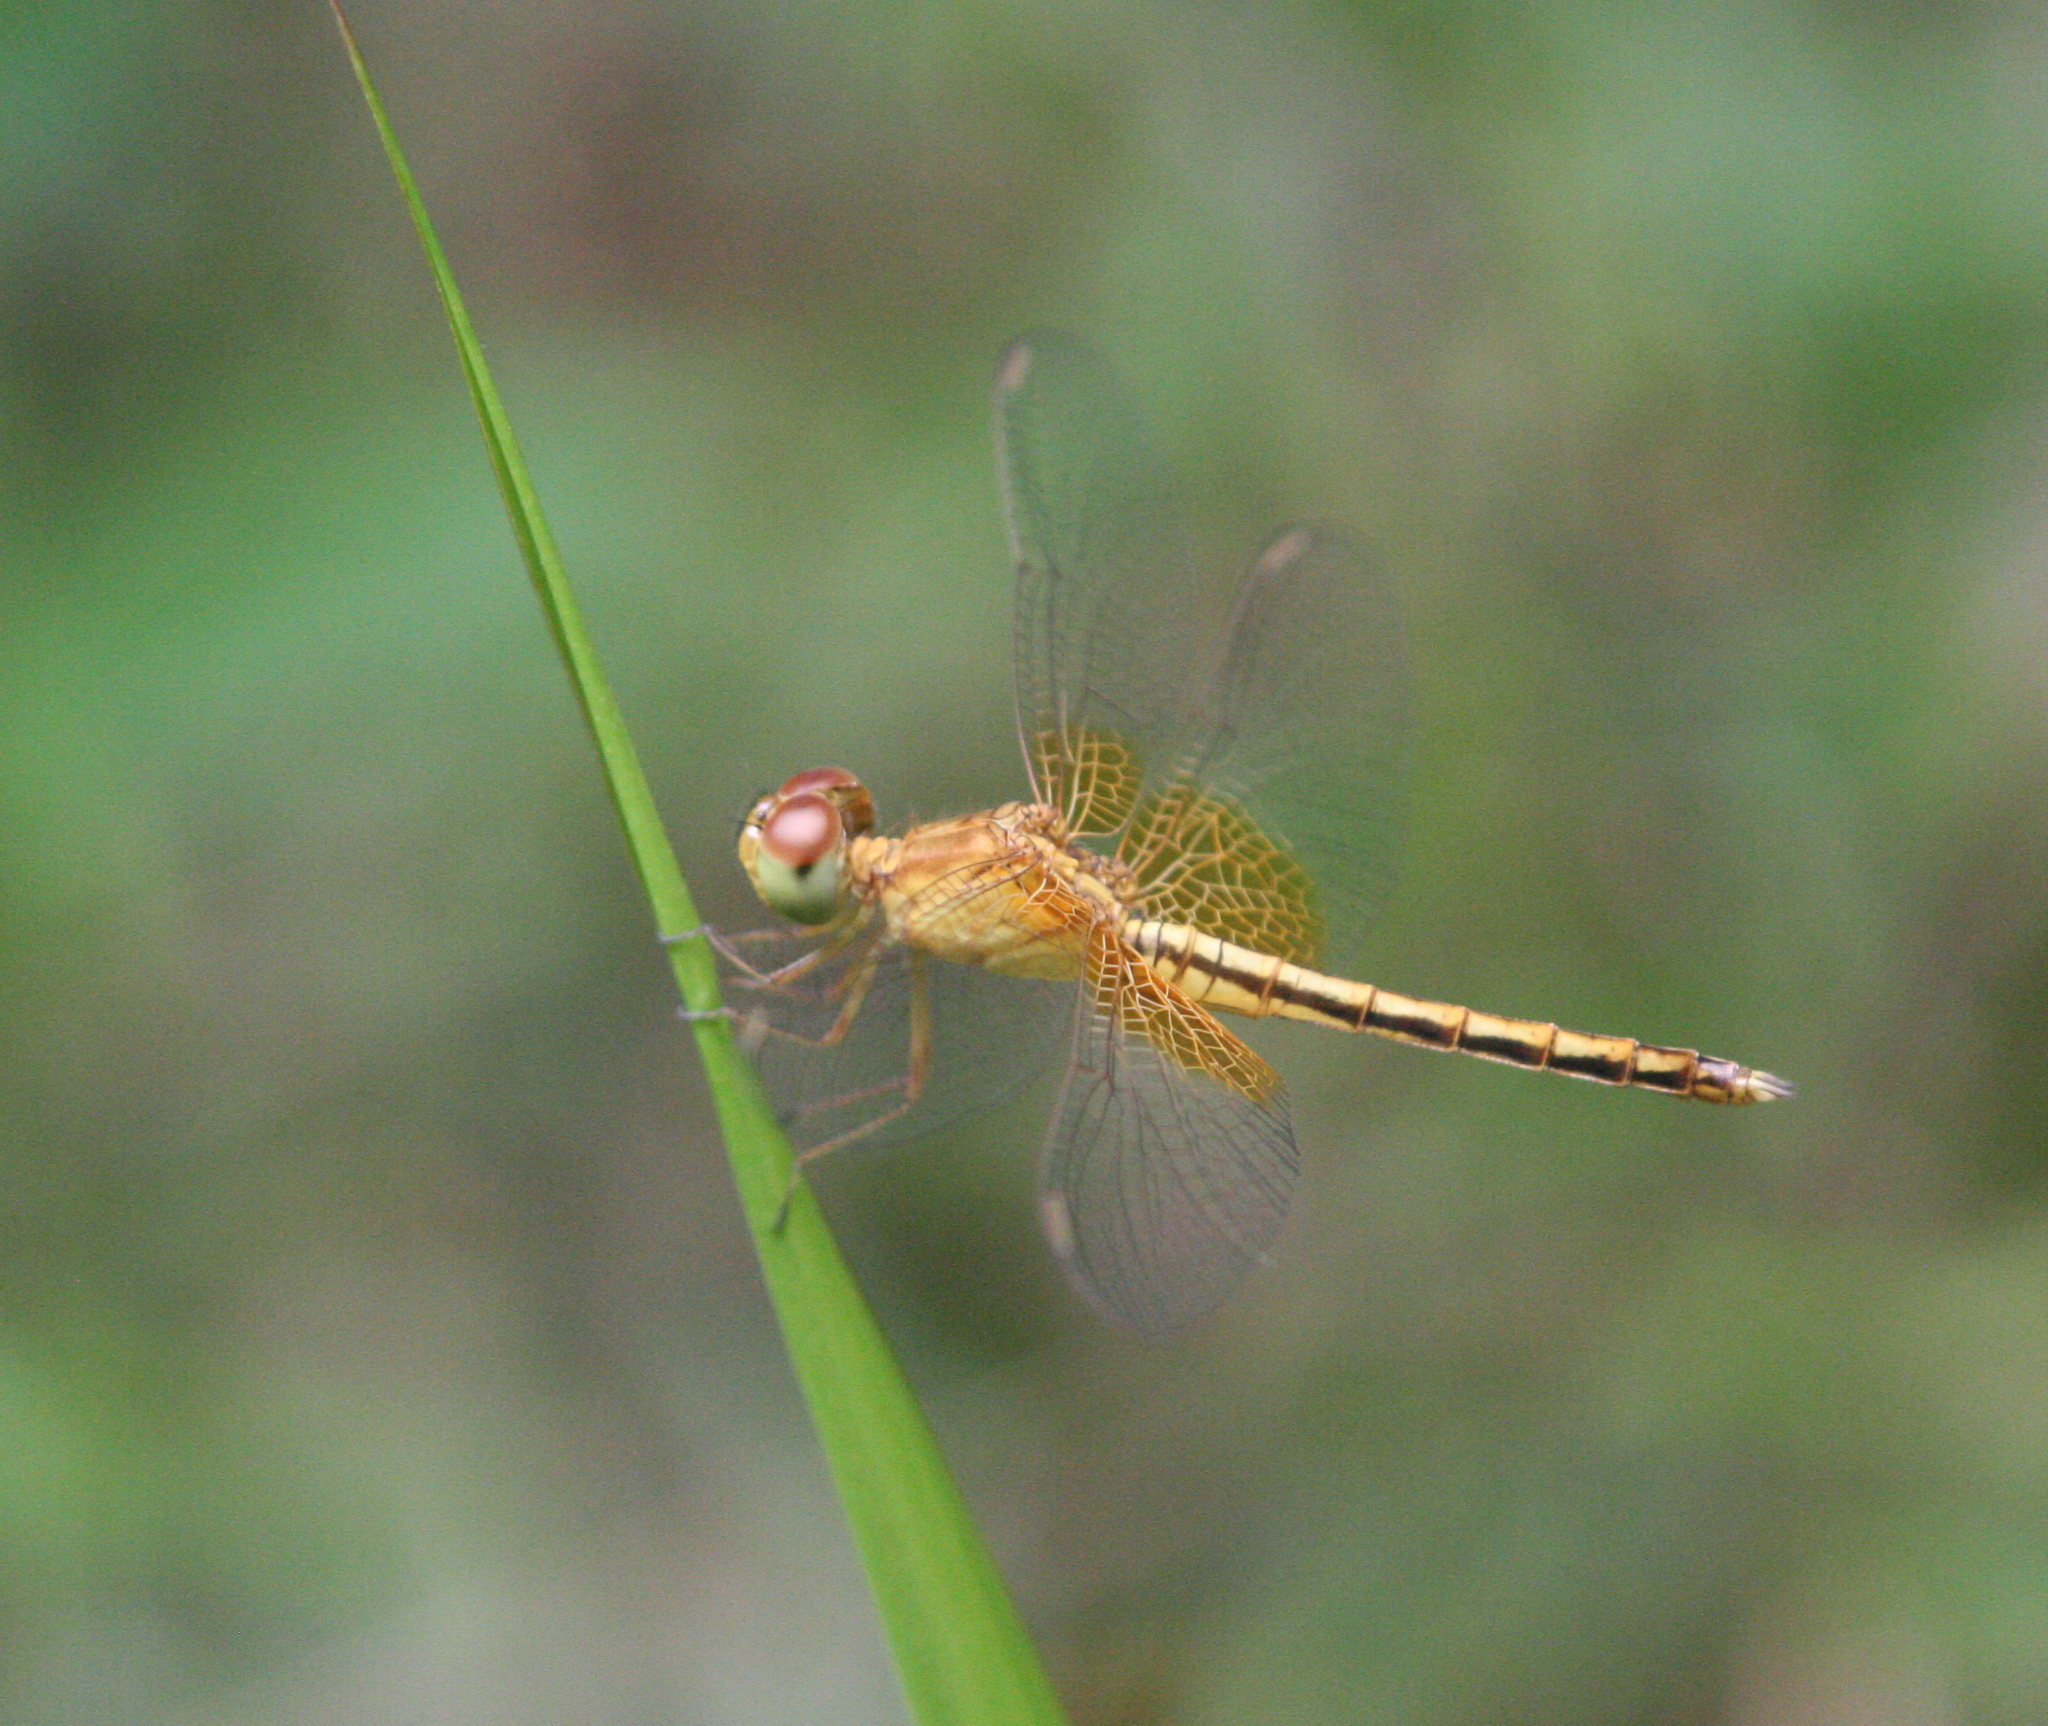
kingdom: Animalia
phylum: Arthropoda
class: Insecta
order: Odonata
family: Libellulidae
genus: Neurothemis
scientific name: Neurothemis intermedia
